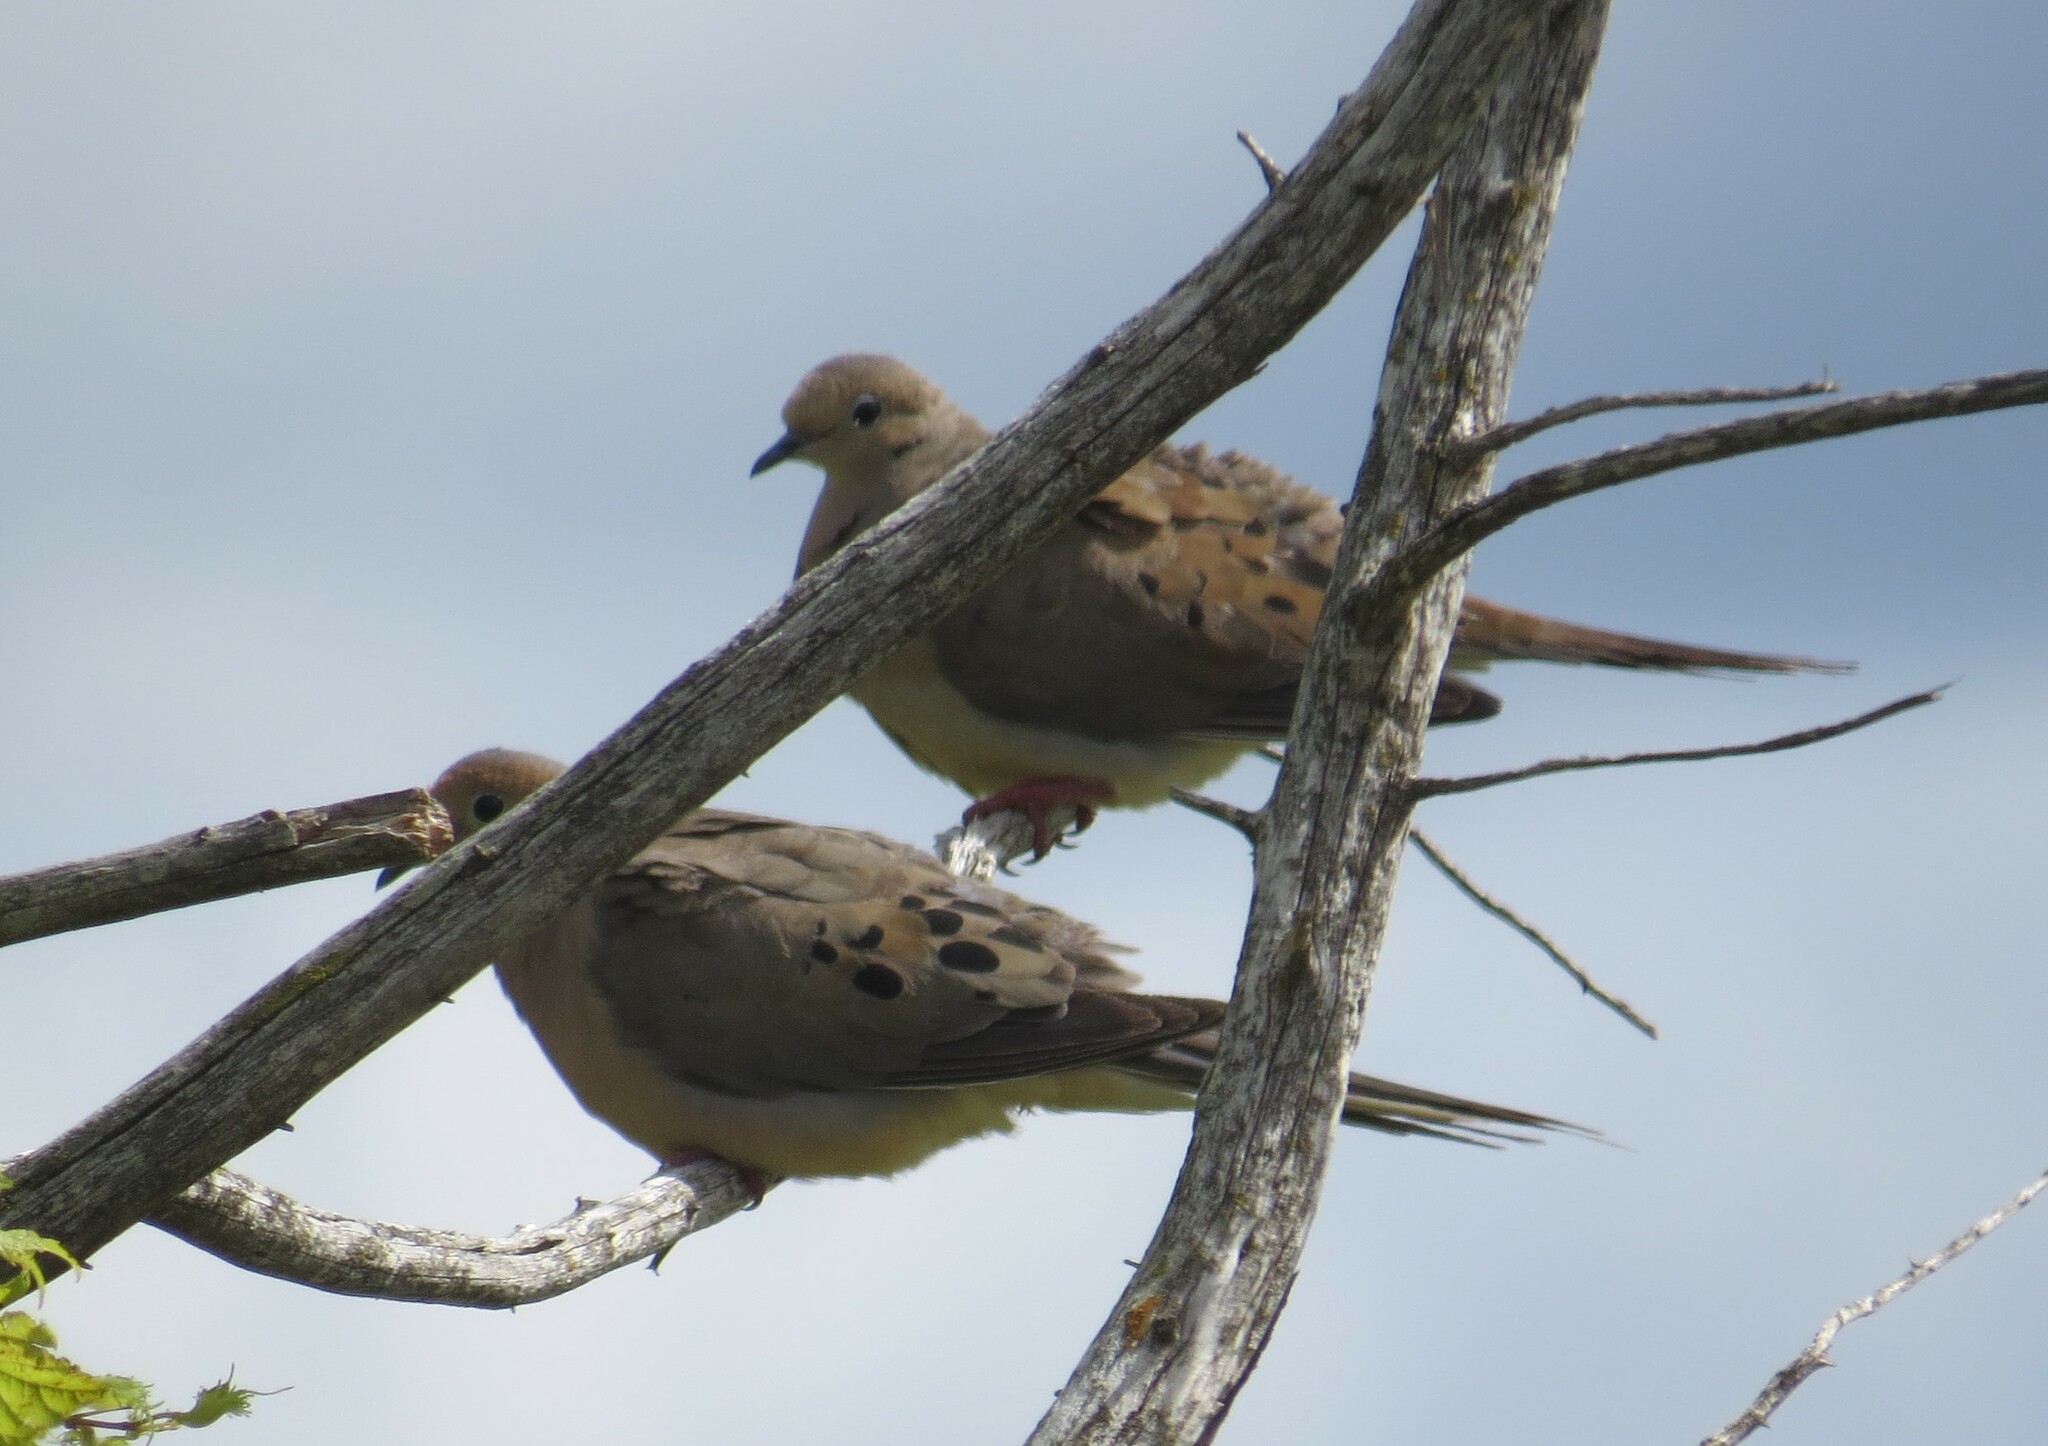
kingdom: Animalia
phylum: Chordata
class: Aves
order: Columbiformes
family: Columbidae
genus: Zenaida
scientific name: Zenaida macroura
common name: Mourning dove
